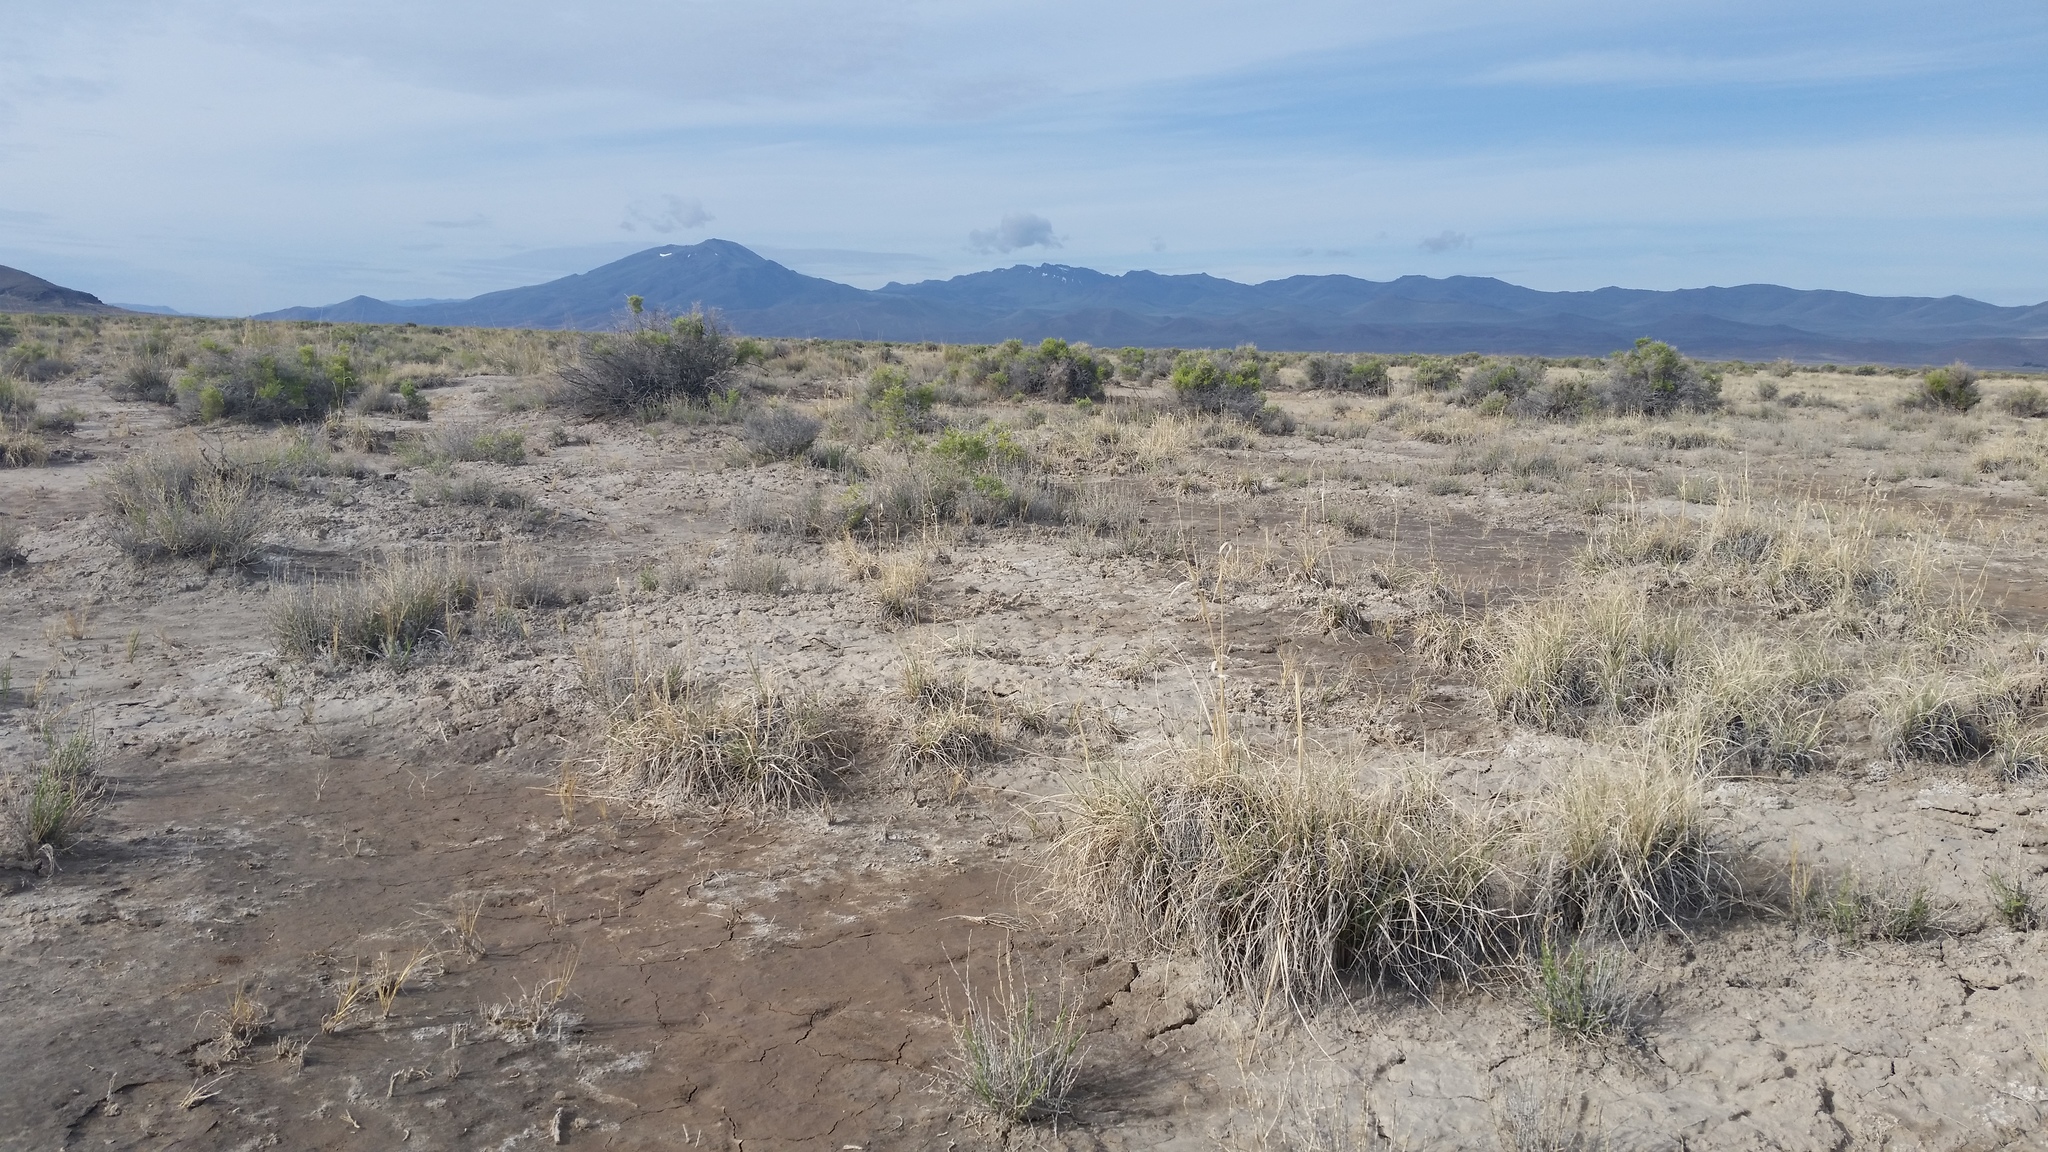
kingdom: Plantae
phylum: Tracheophyta
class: Magnoliopsida
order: Caryophyllales
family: Amaranthaceae
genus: Allenrolfea
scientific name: Allenrolfea occidentalis
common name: Iodine-bush
